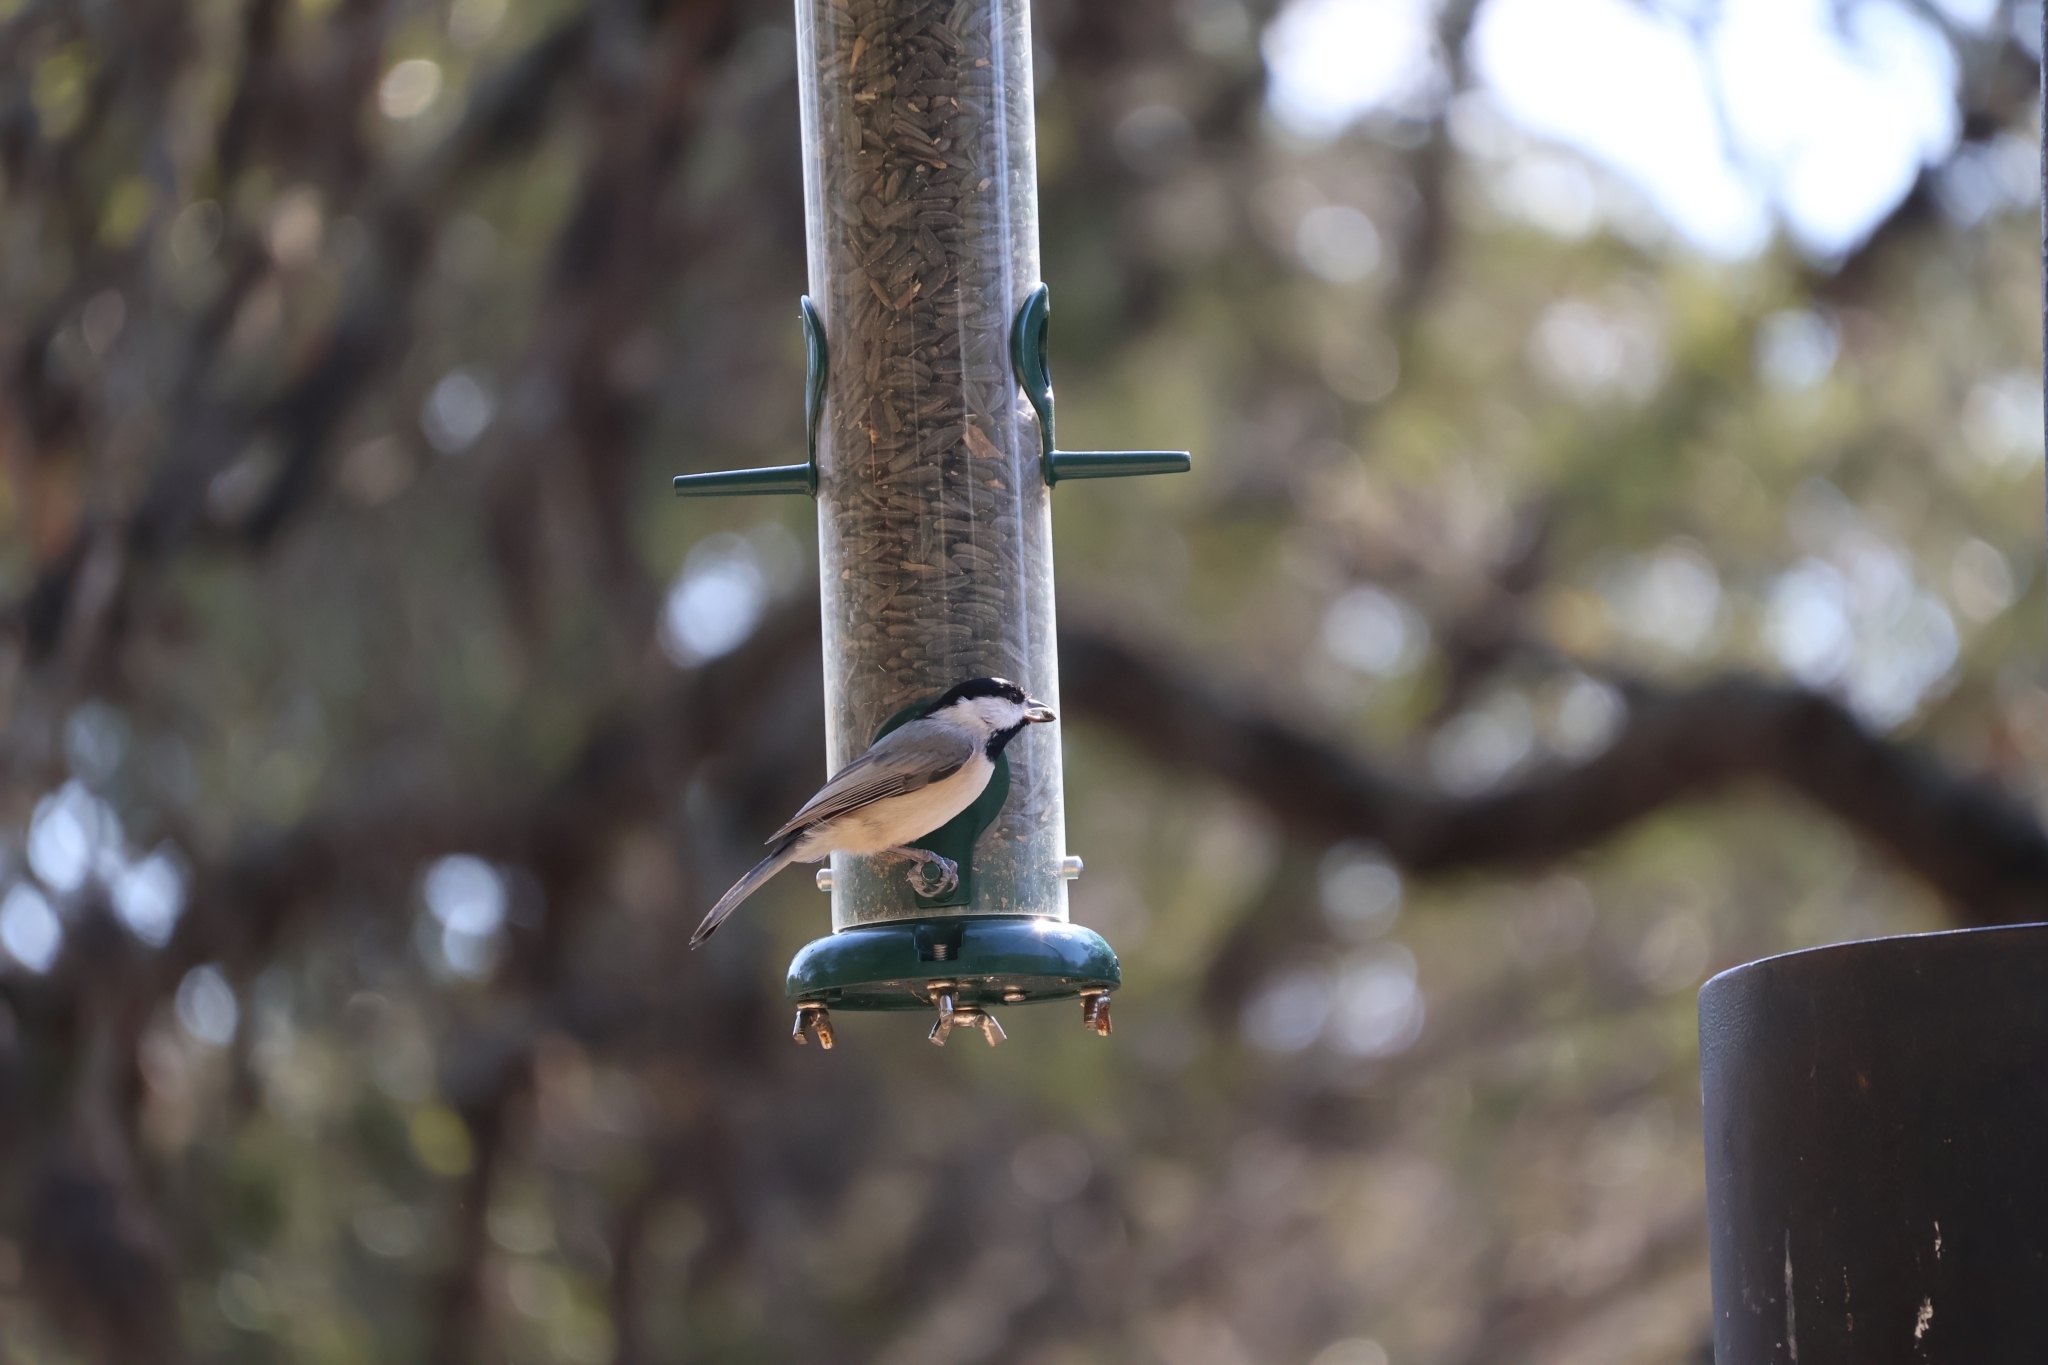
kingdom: Animalia
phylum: Chordata
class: Aves
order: Passeriformes
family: Paridae
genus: Poecile
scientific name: Poecile carolinensis
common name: Carolina chickadee
